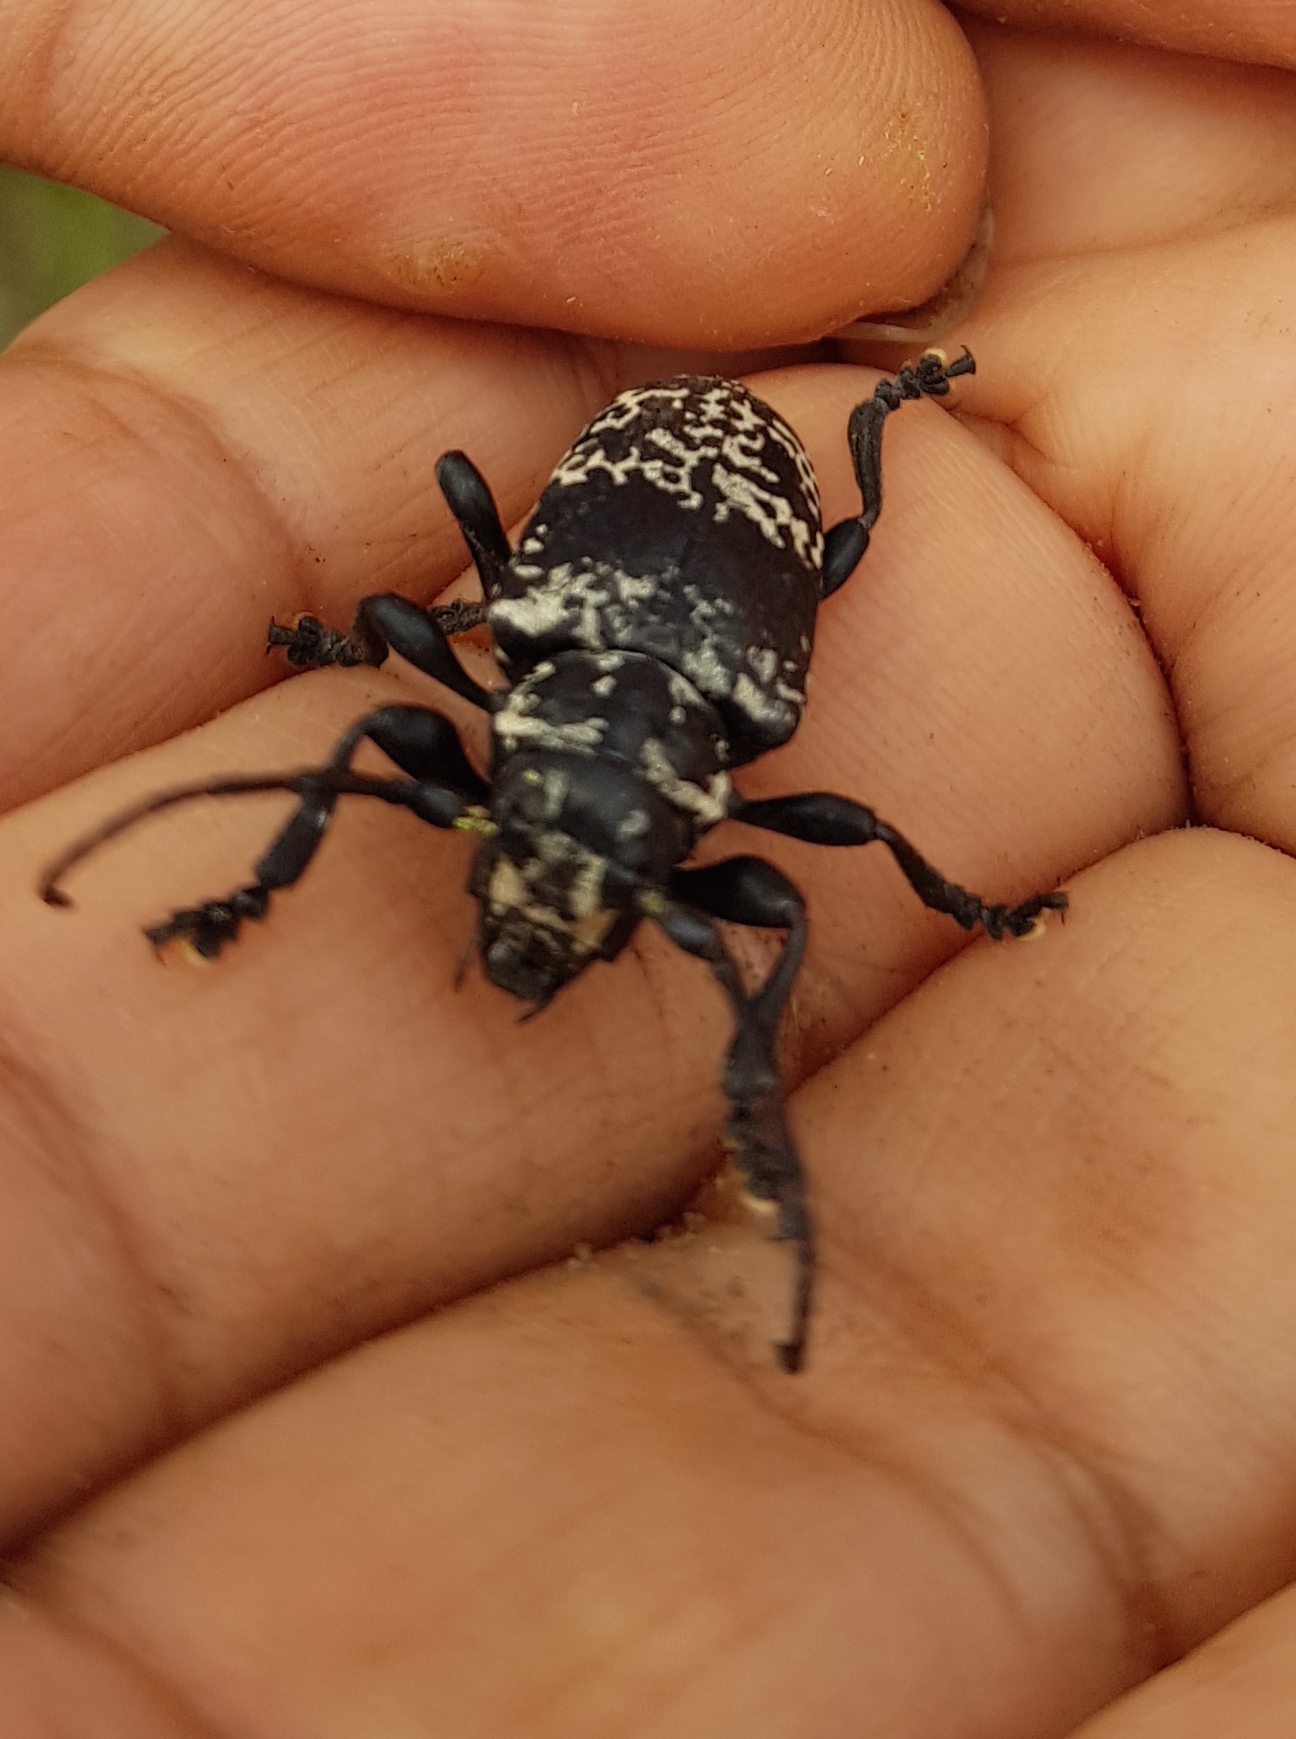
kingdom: Animalia
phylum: Arthropoda
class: Insecta
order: Coleoptera
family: Cerambycidae
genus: Acanthoderes
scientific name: Acanthoderes funeraria
